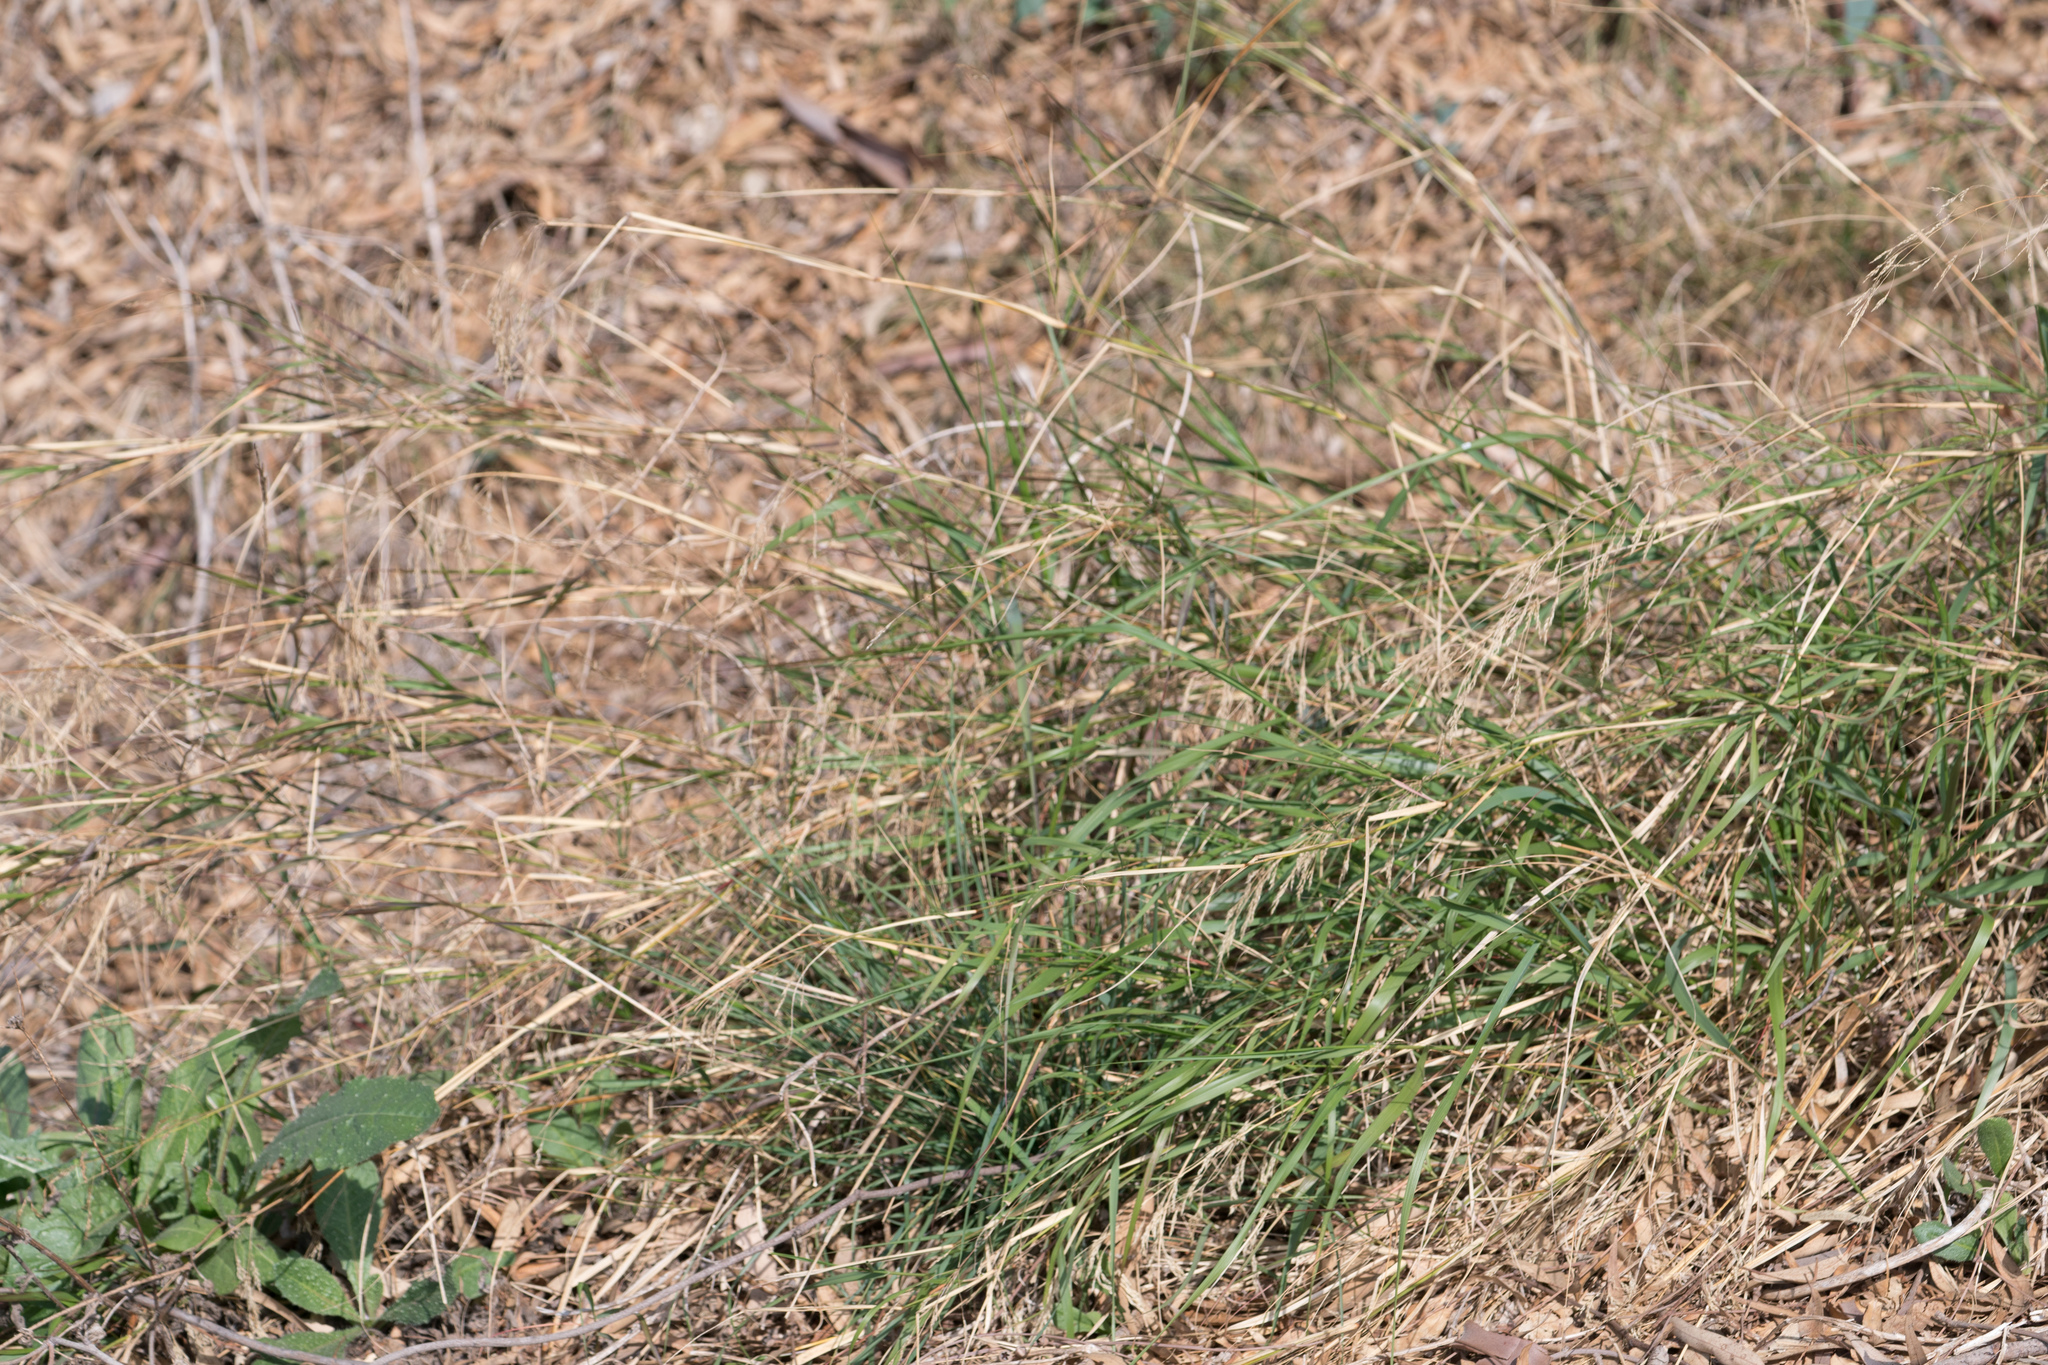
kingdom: Plantae
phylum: Tracheophyta
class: Liliopsida
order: Poales
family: Poaceae
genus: Oloptum
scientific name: Oloptum miliaceum
